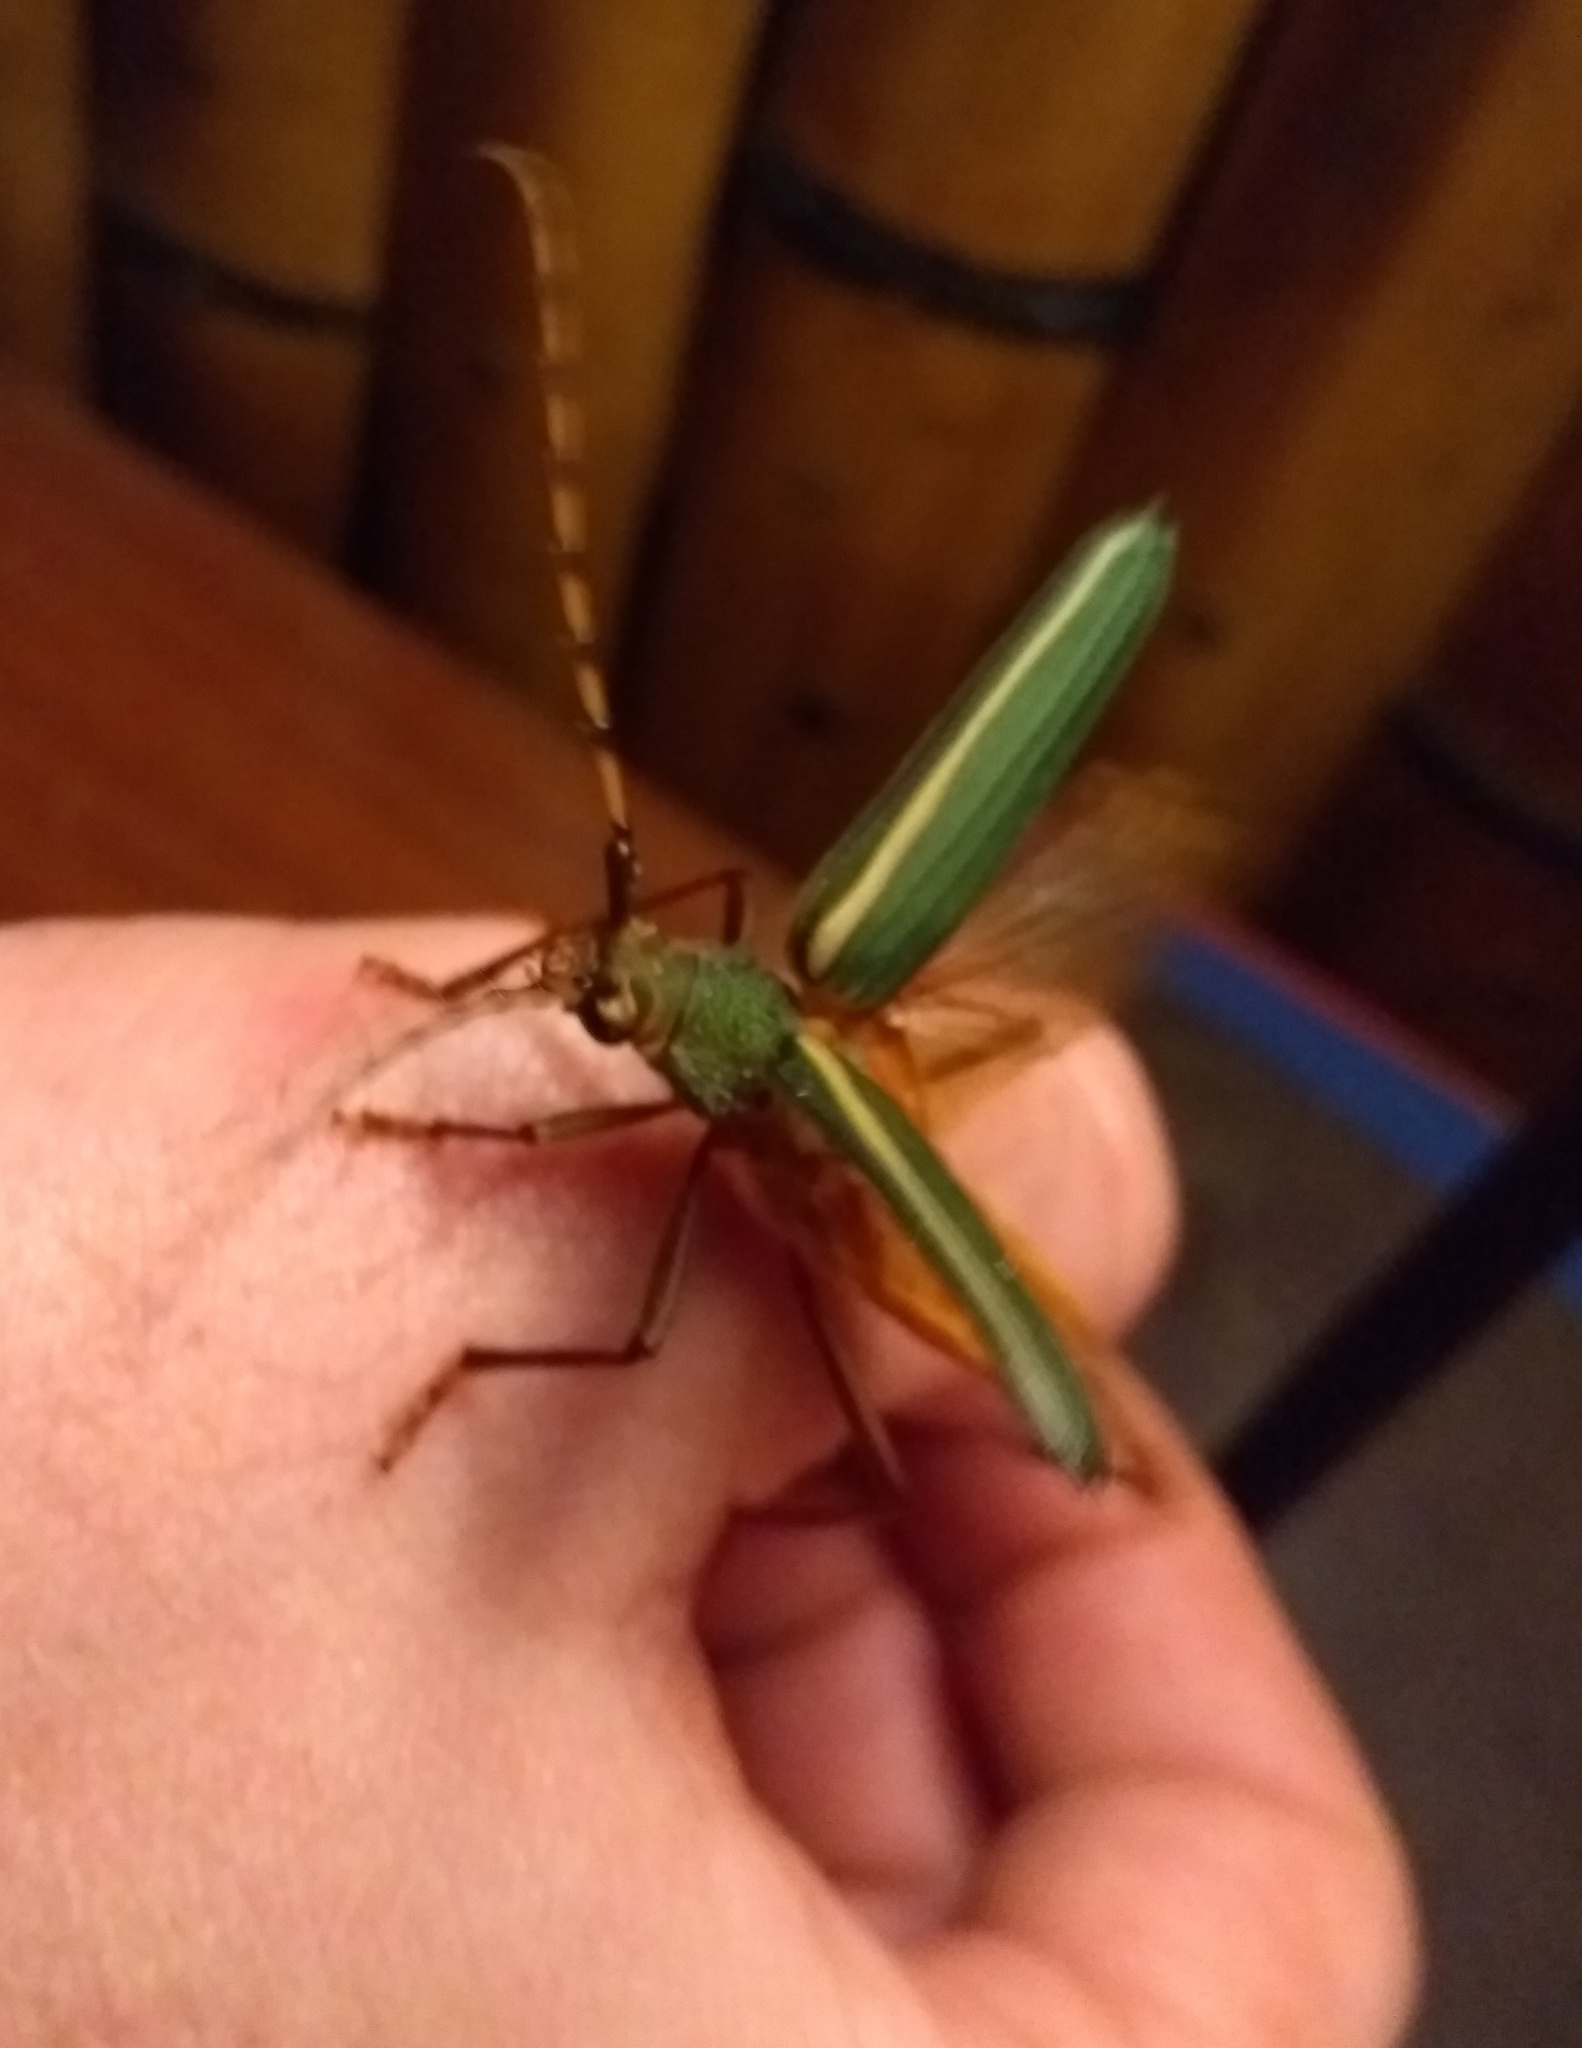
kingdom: Animalia
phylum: Arthropoda
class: Insecta
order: Coleoptera
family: Cerambycidae
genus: Chlorida
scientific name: Chlorida costata
